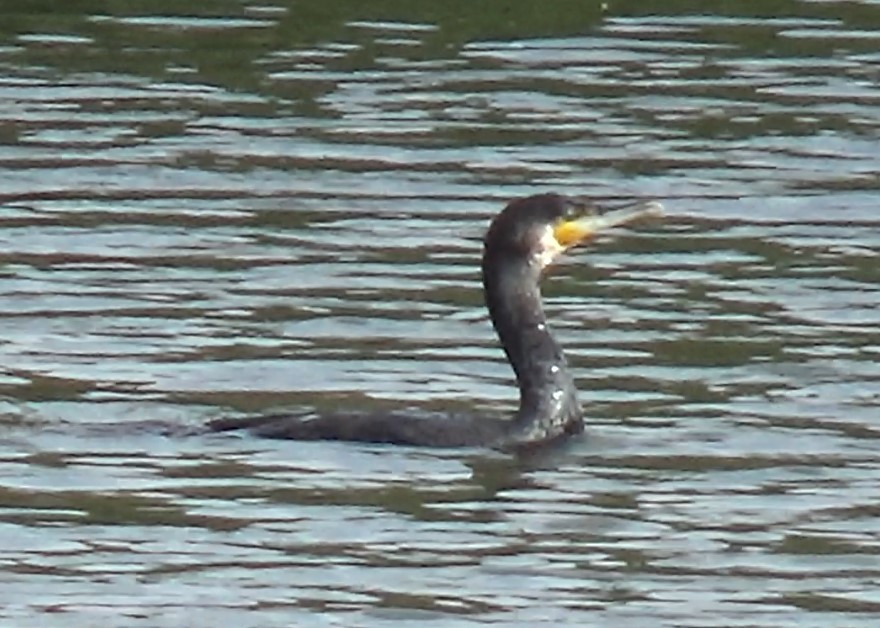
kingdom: Animalia
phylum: Chordata
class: Aves
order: Suliformes
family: Phalacrocoracidae
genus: Phalacrocorax
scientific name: Phalacrocorax carbo
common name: Great cormorant
